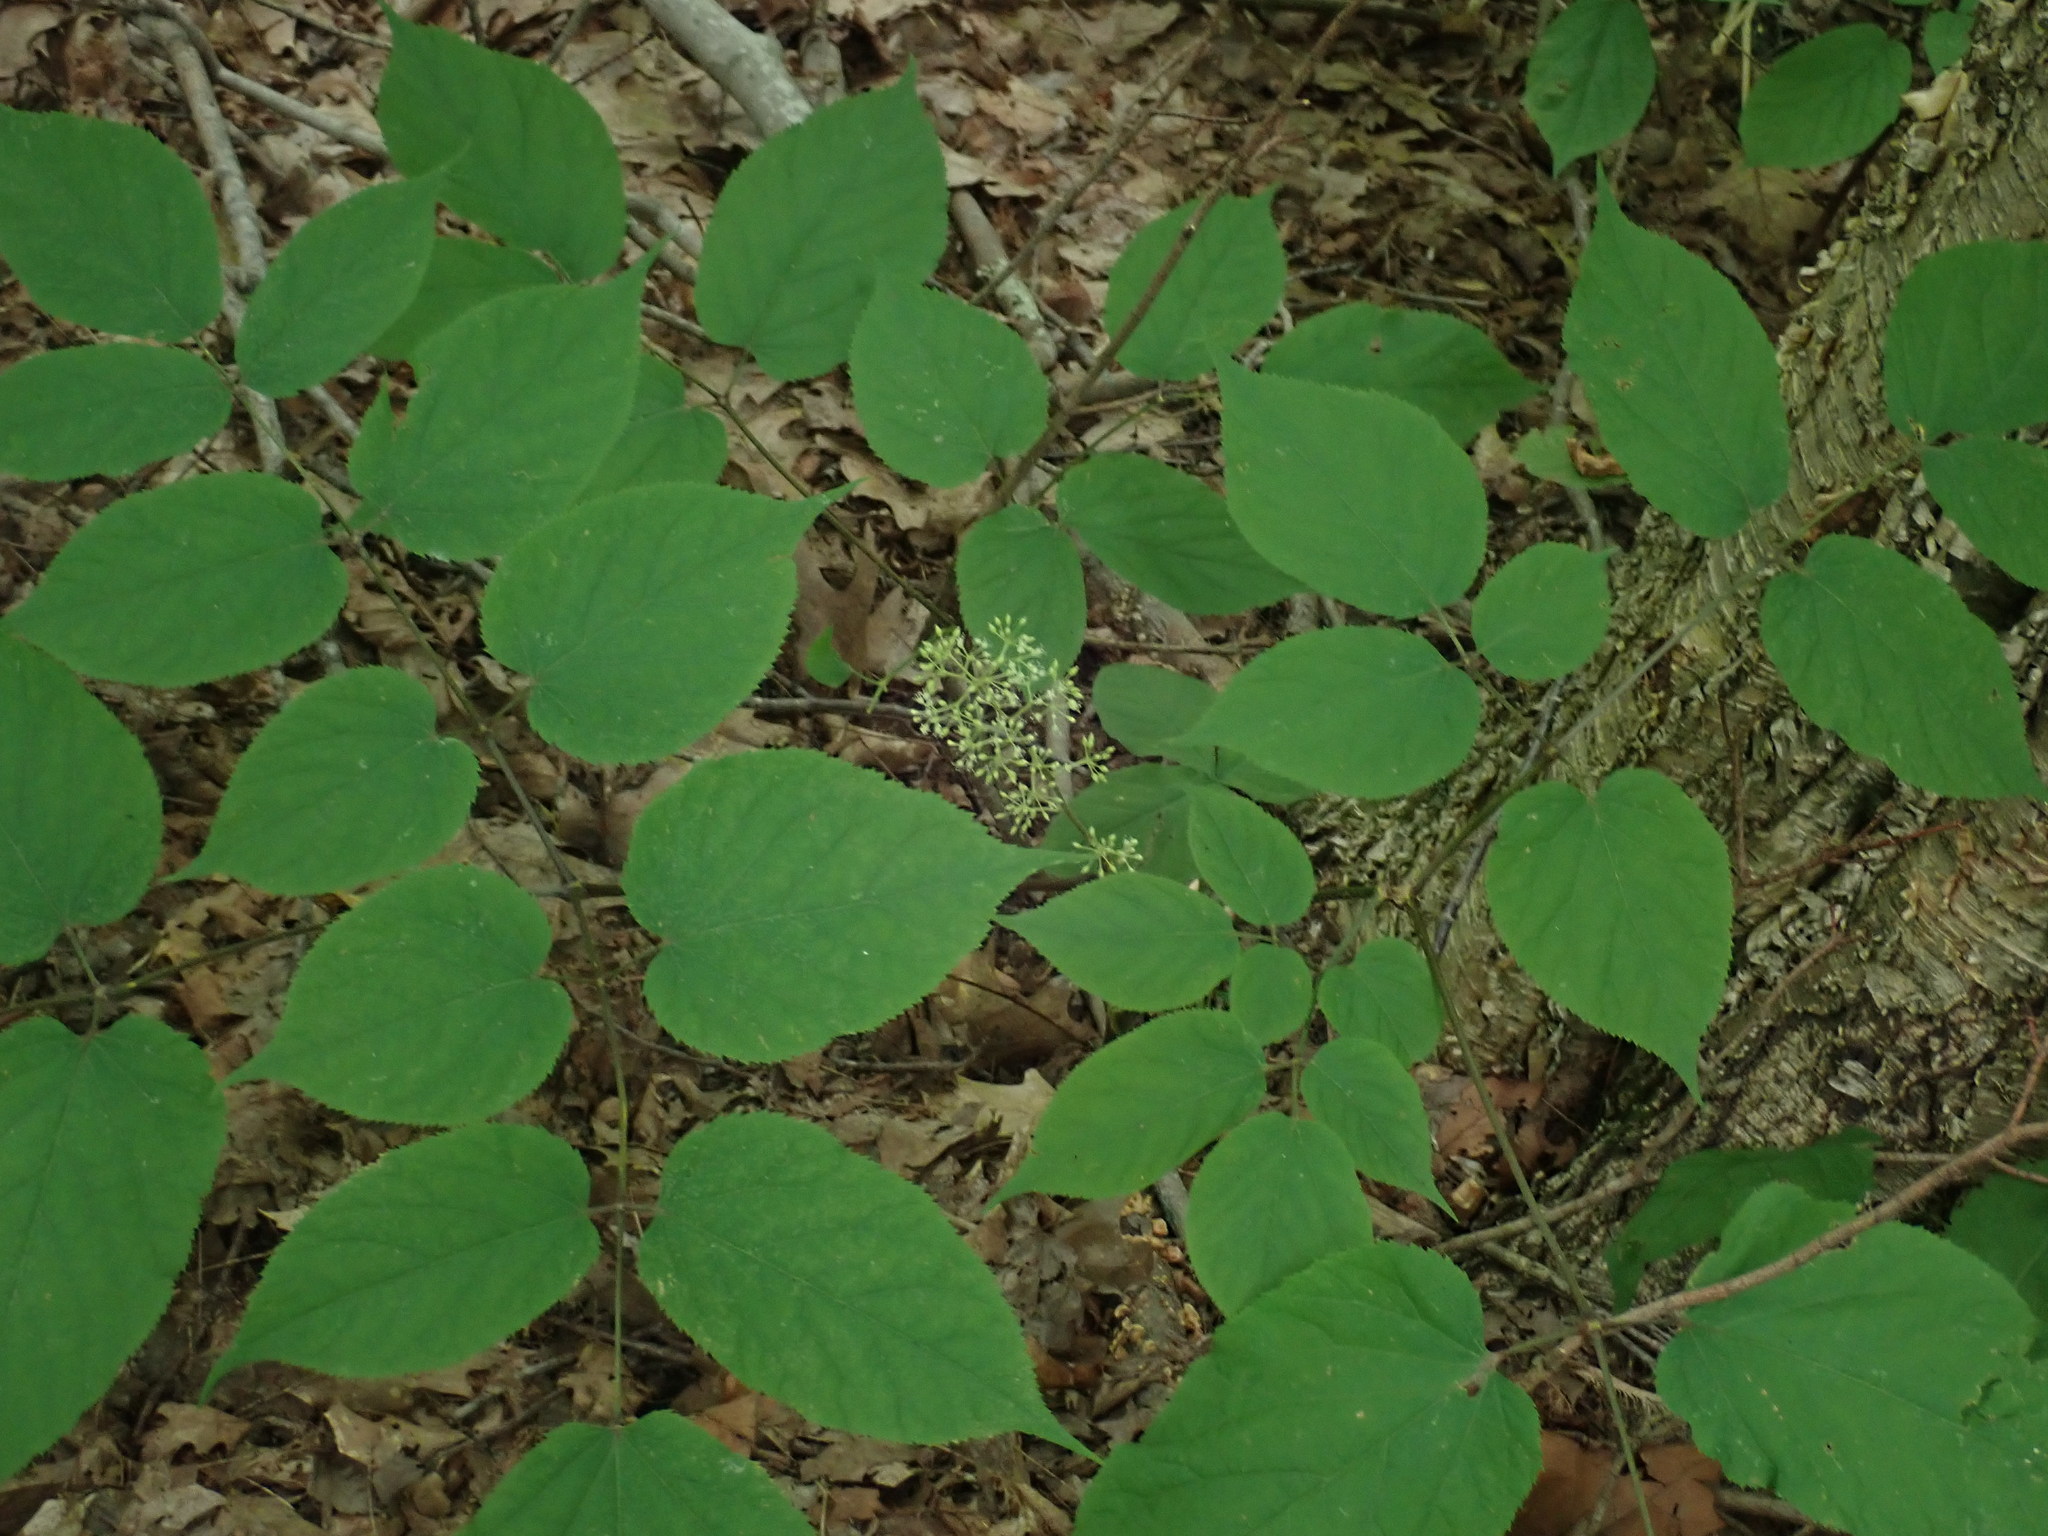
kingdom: Plantae
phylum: Tracheophyta
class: Magnoliopsida
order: Apiales
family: Araliaceae
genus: Aralia
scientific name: Aralia racemosa
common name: American-spikenard
